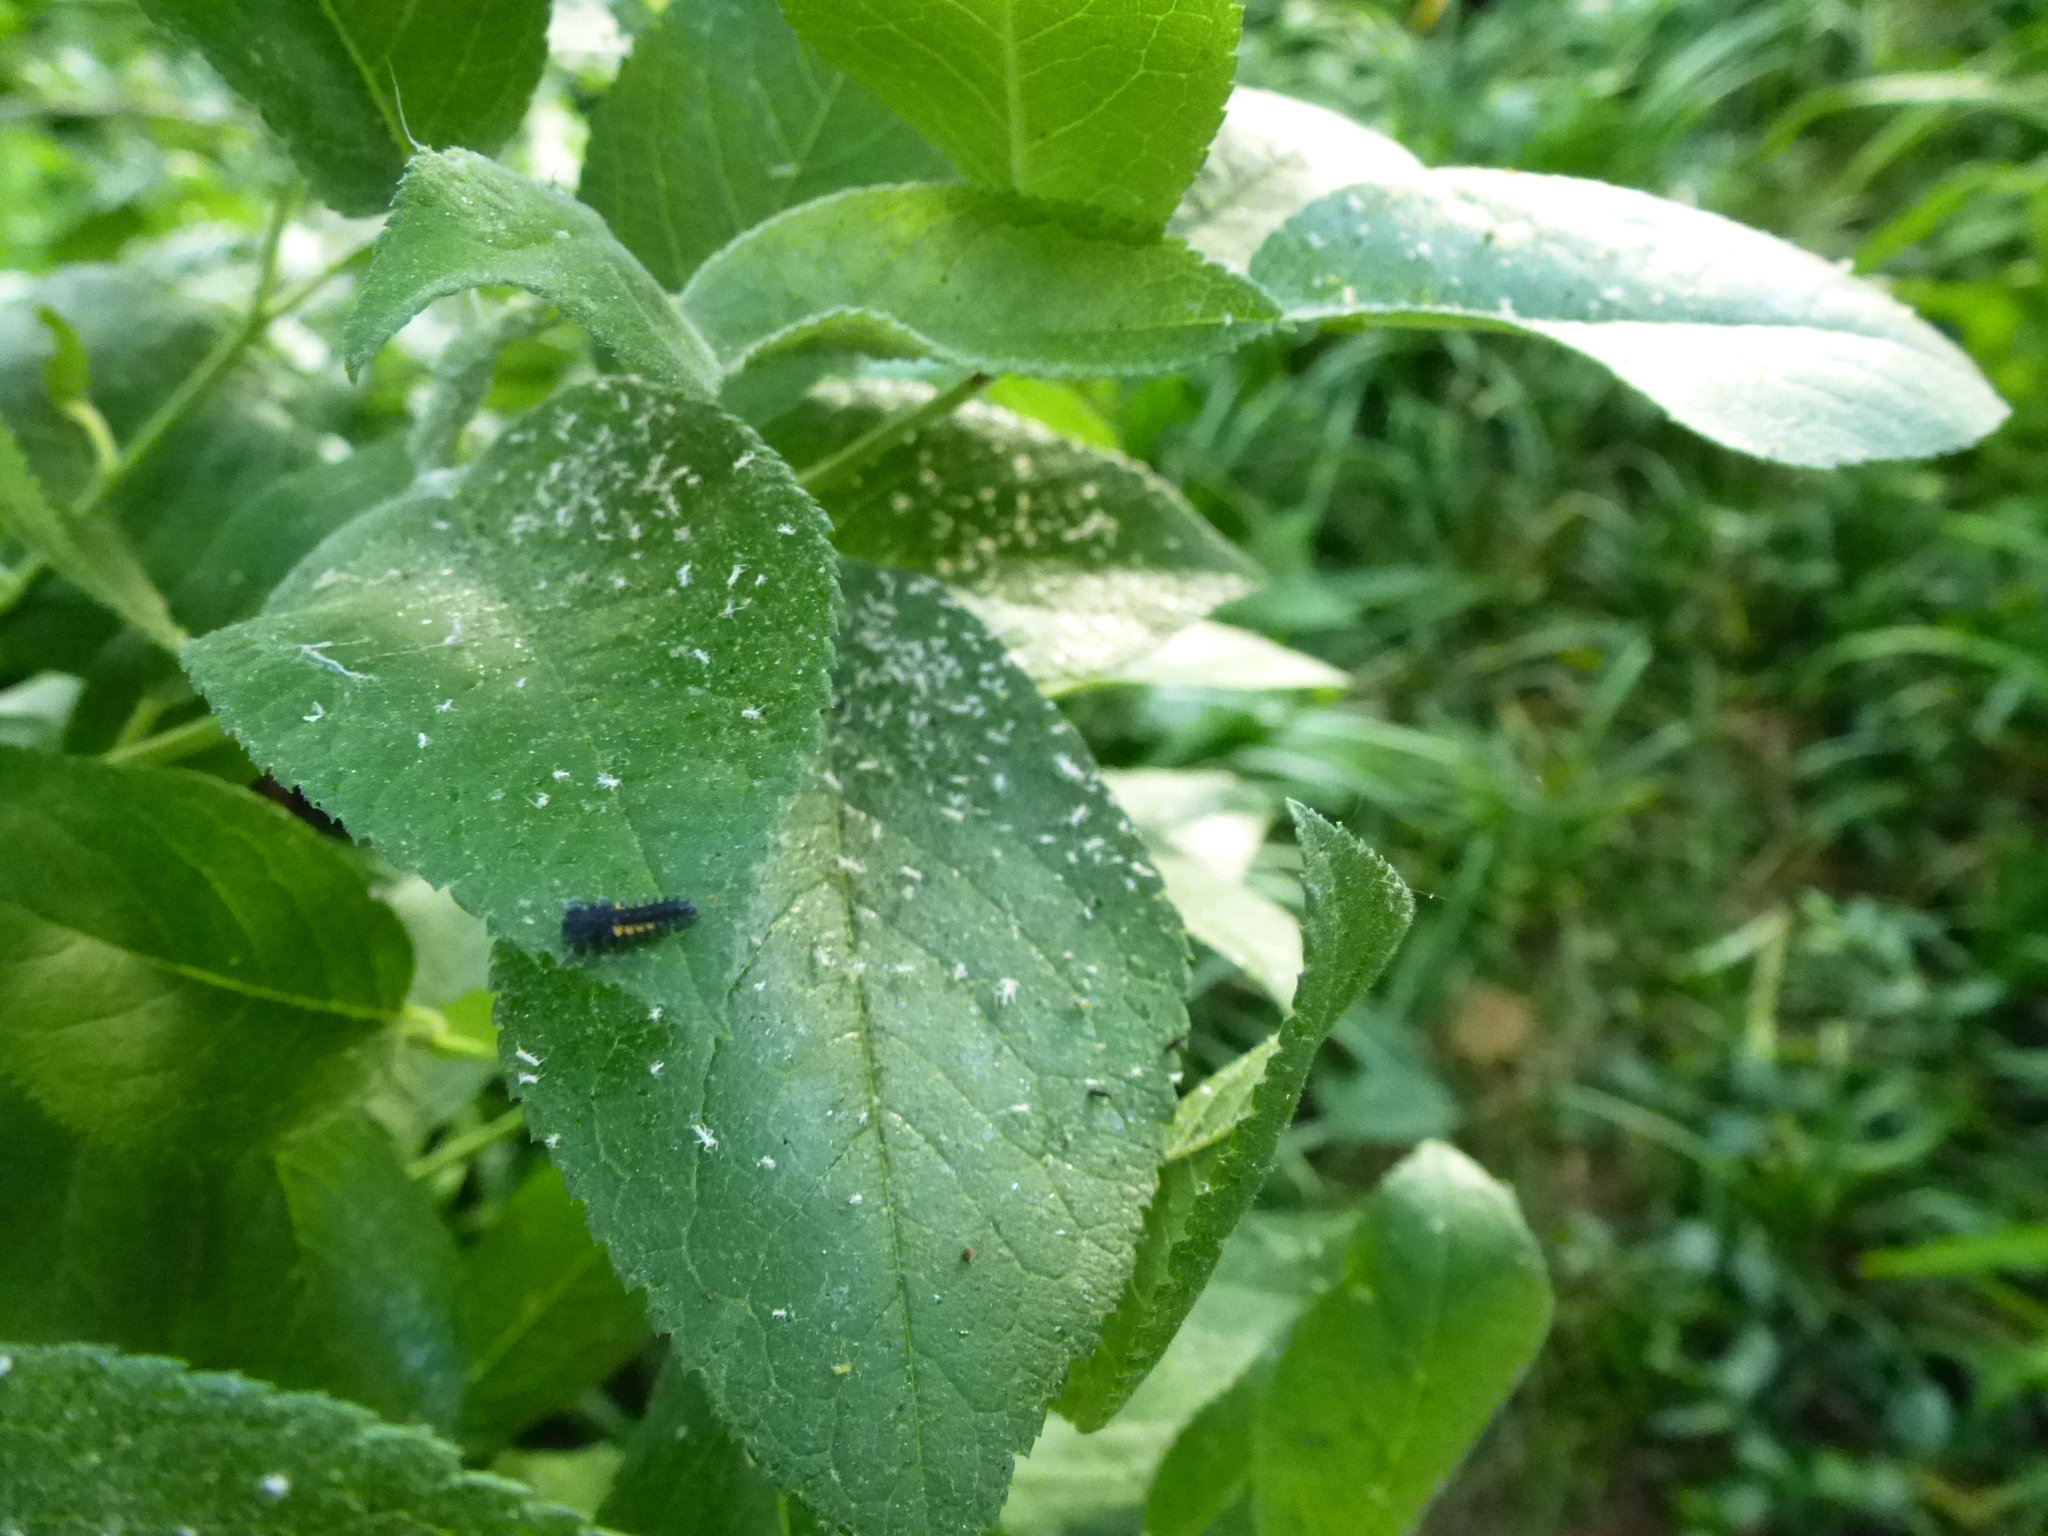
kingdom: Animalia
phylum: Arthropoda
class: Insecta
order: Coleoptera
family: Coccinellidae
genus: Harmonia
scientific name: Harmonia axyridis
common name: Harlequin ladybird
